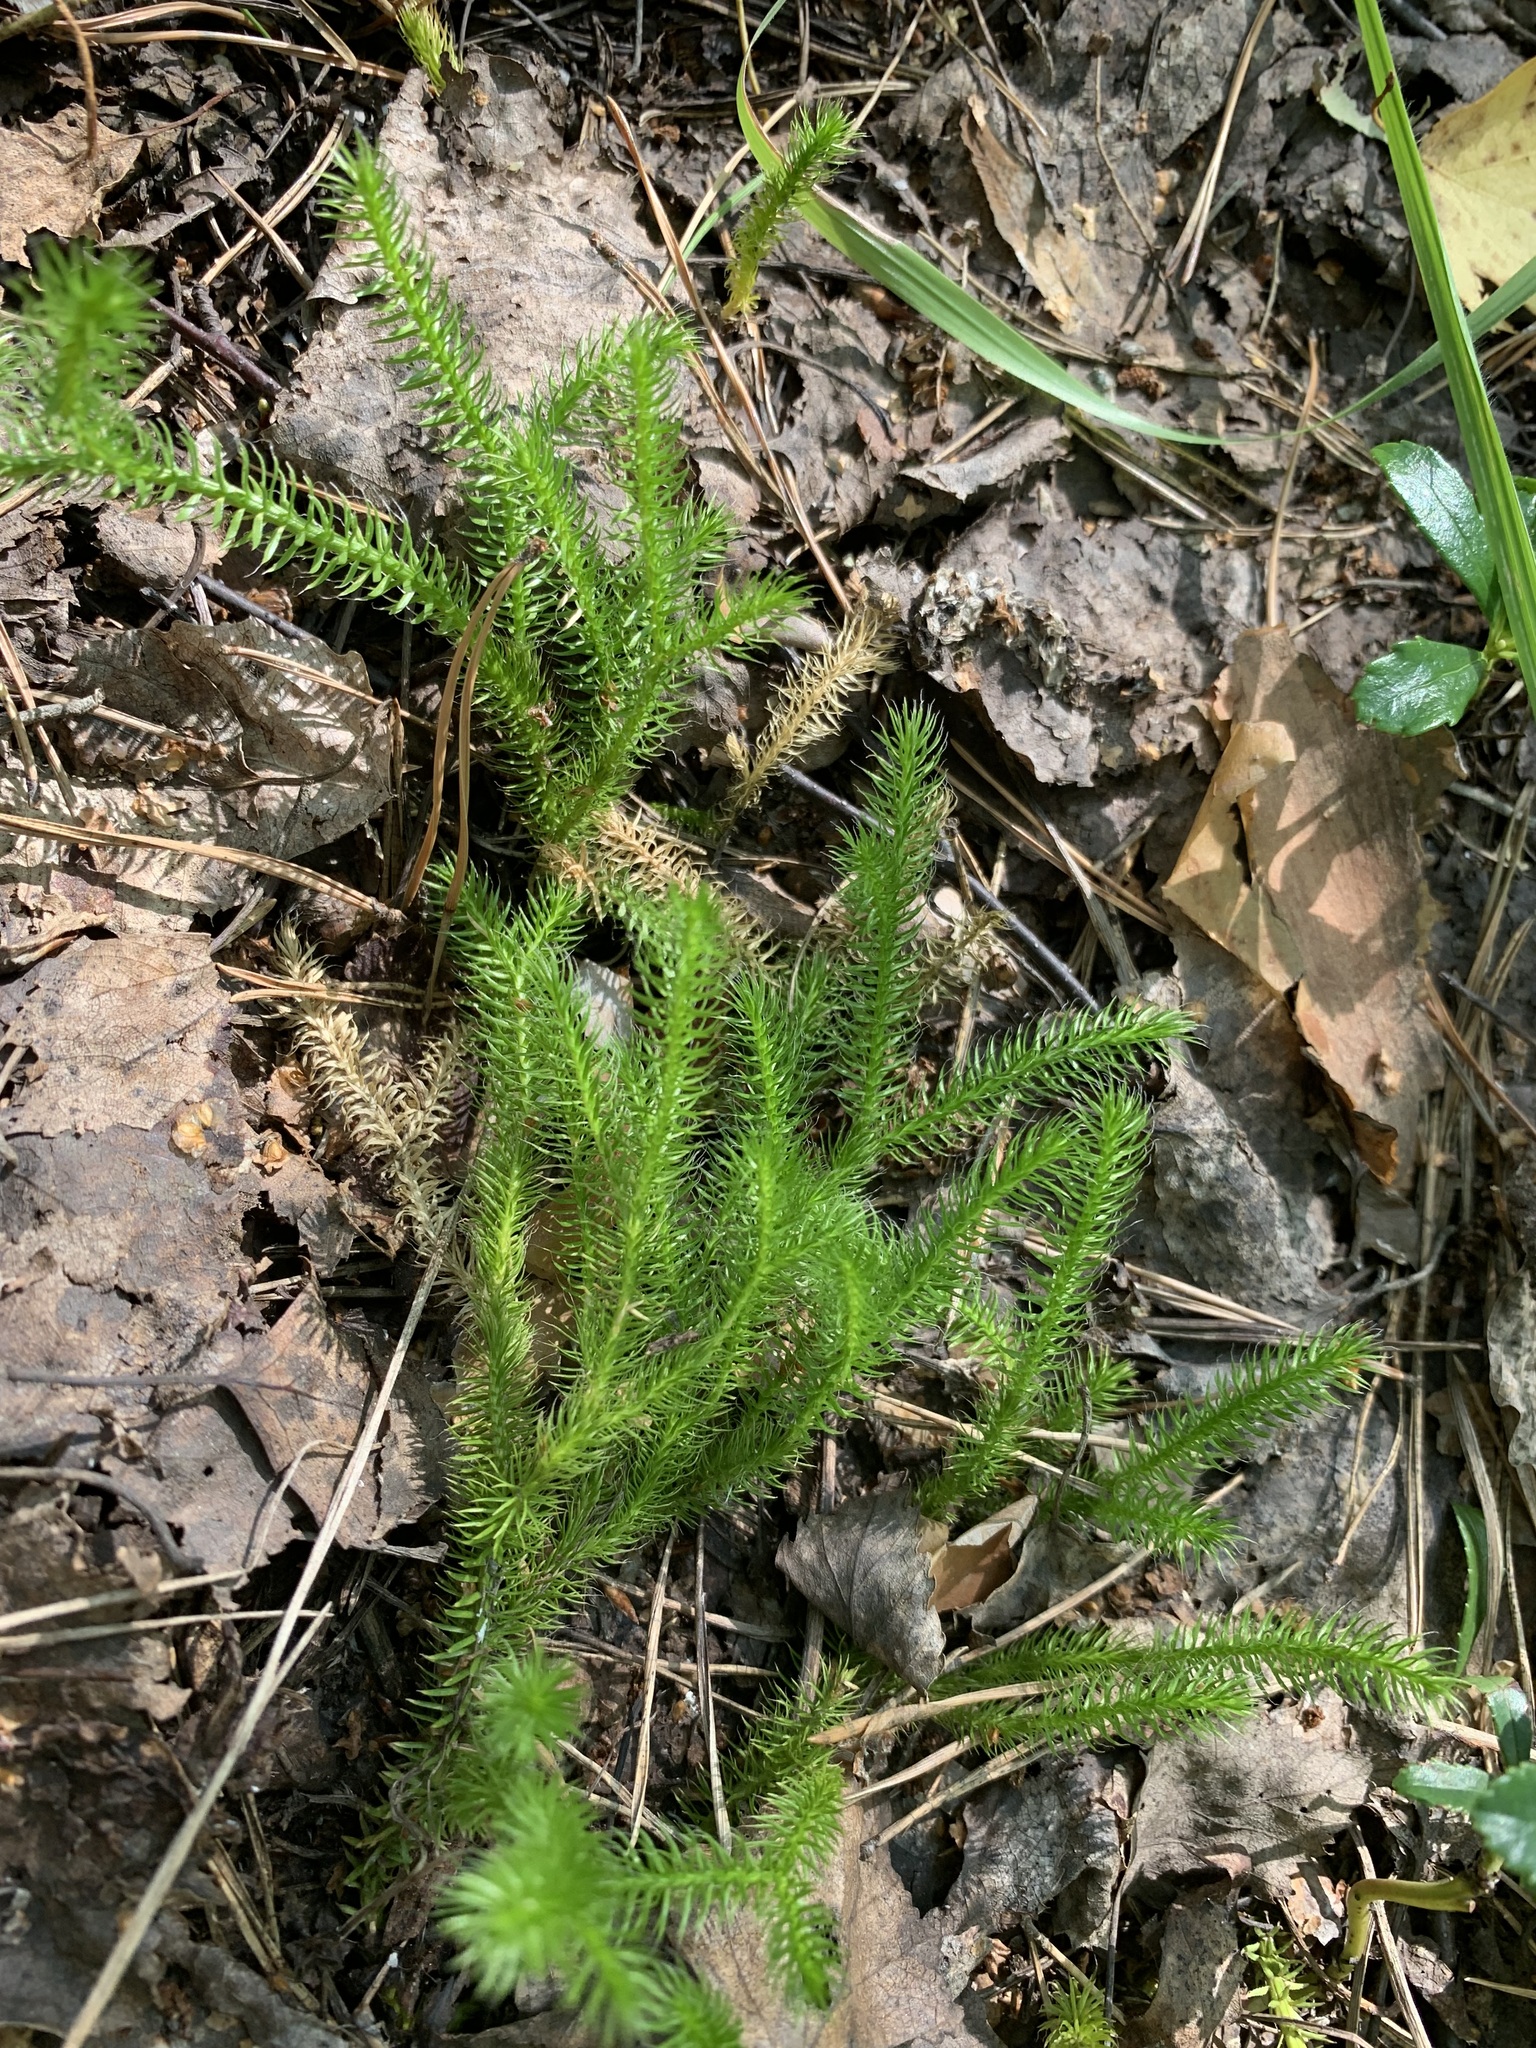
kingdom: Plantae
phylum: Tracheophyta
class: Lycopodiopsida
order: Lycopodiales
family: Lycopodiaceae
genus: Lycopodium
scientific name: Lycopodium clavatum
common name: Stag's-horn clubmoss
